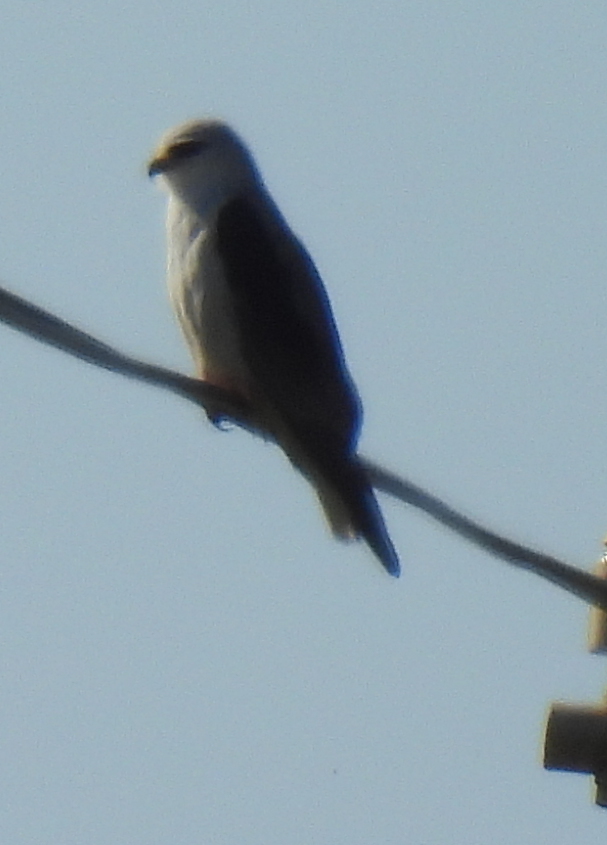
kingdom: Animalia
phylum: Chordata
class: Aves
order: Accipitriformes
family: Accipitridae
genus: Elanus
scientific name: Elanus caeruleus
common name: Black-winged kite
